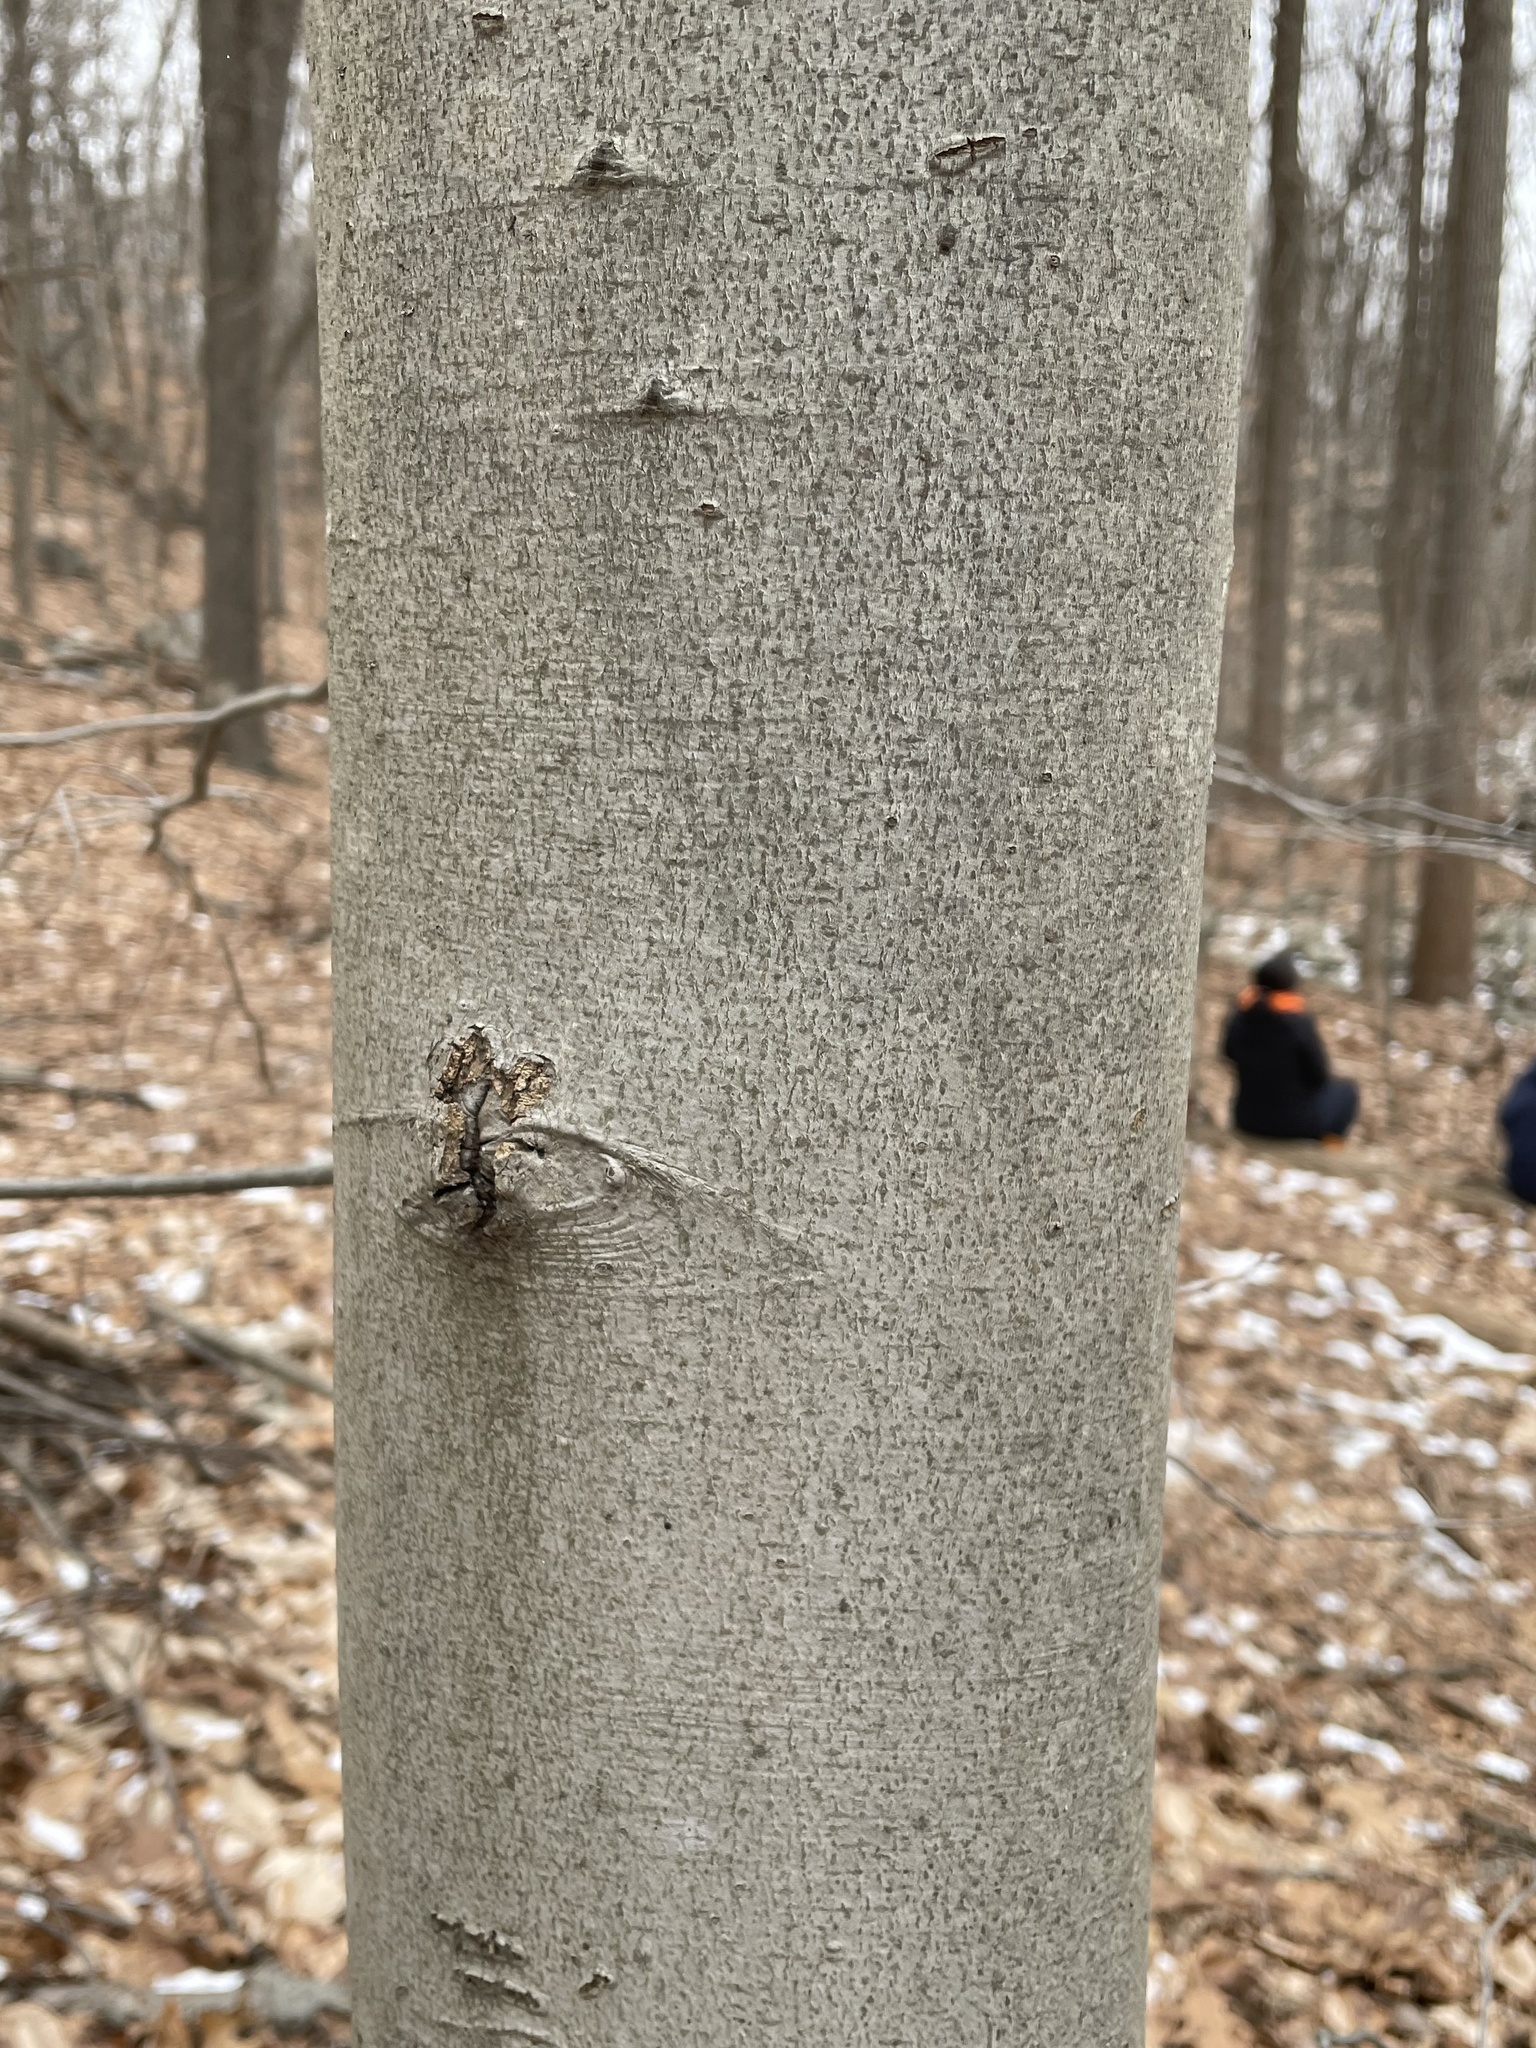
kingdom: Plantae
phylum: Tracheophyta
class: Magnoliopsida
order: Fagales
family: Fagaceae
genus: Fagus
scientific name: Fagus grandifolia
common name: American beech
